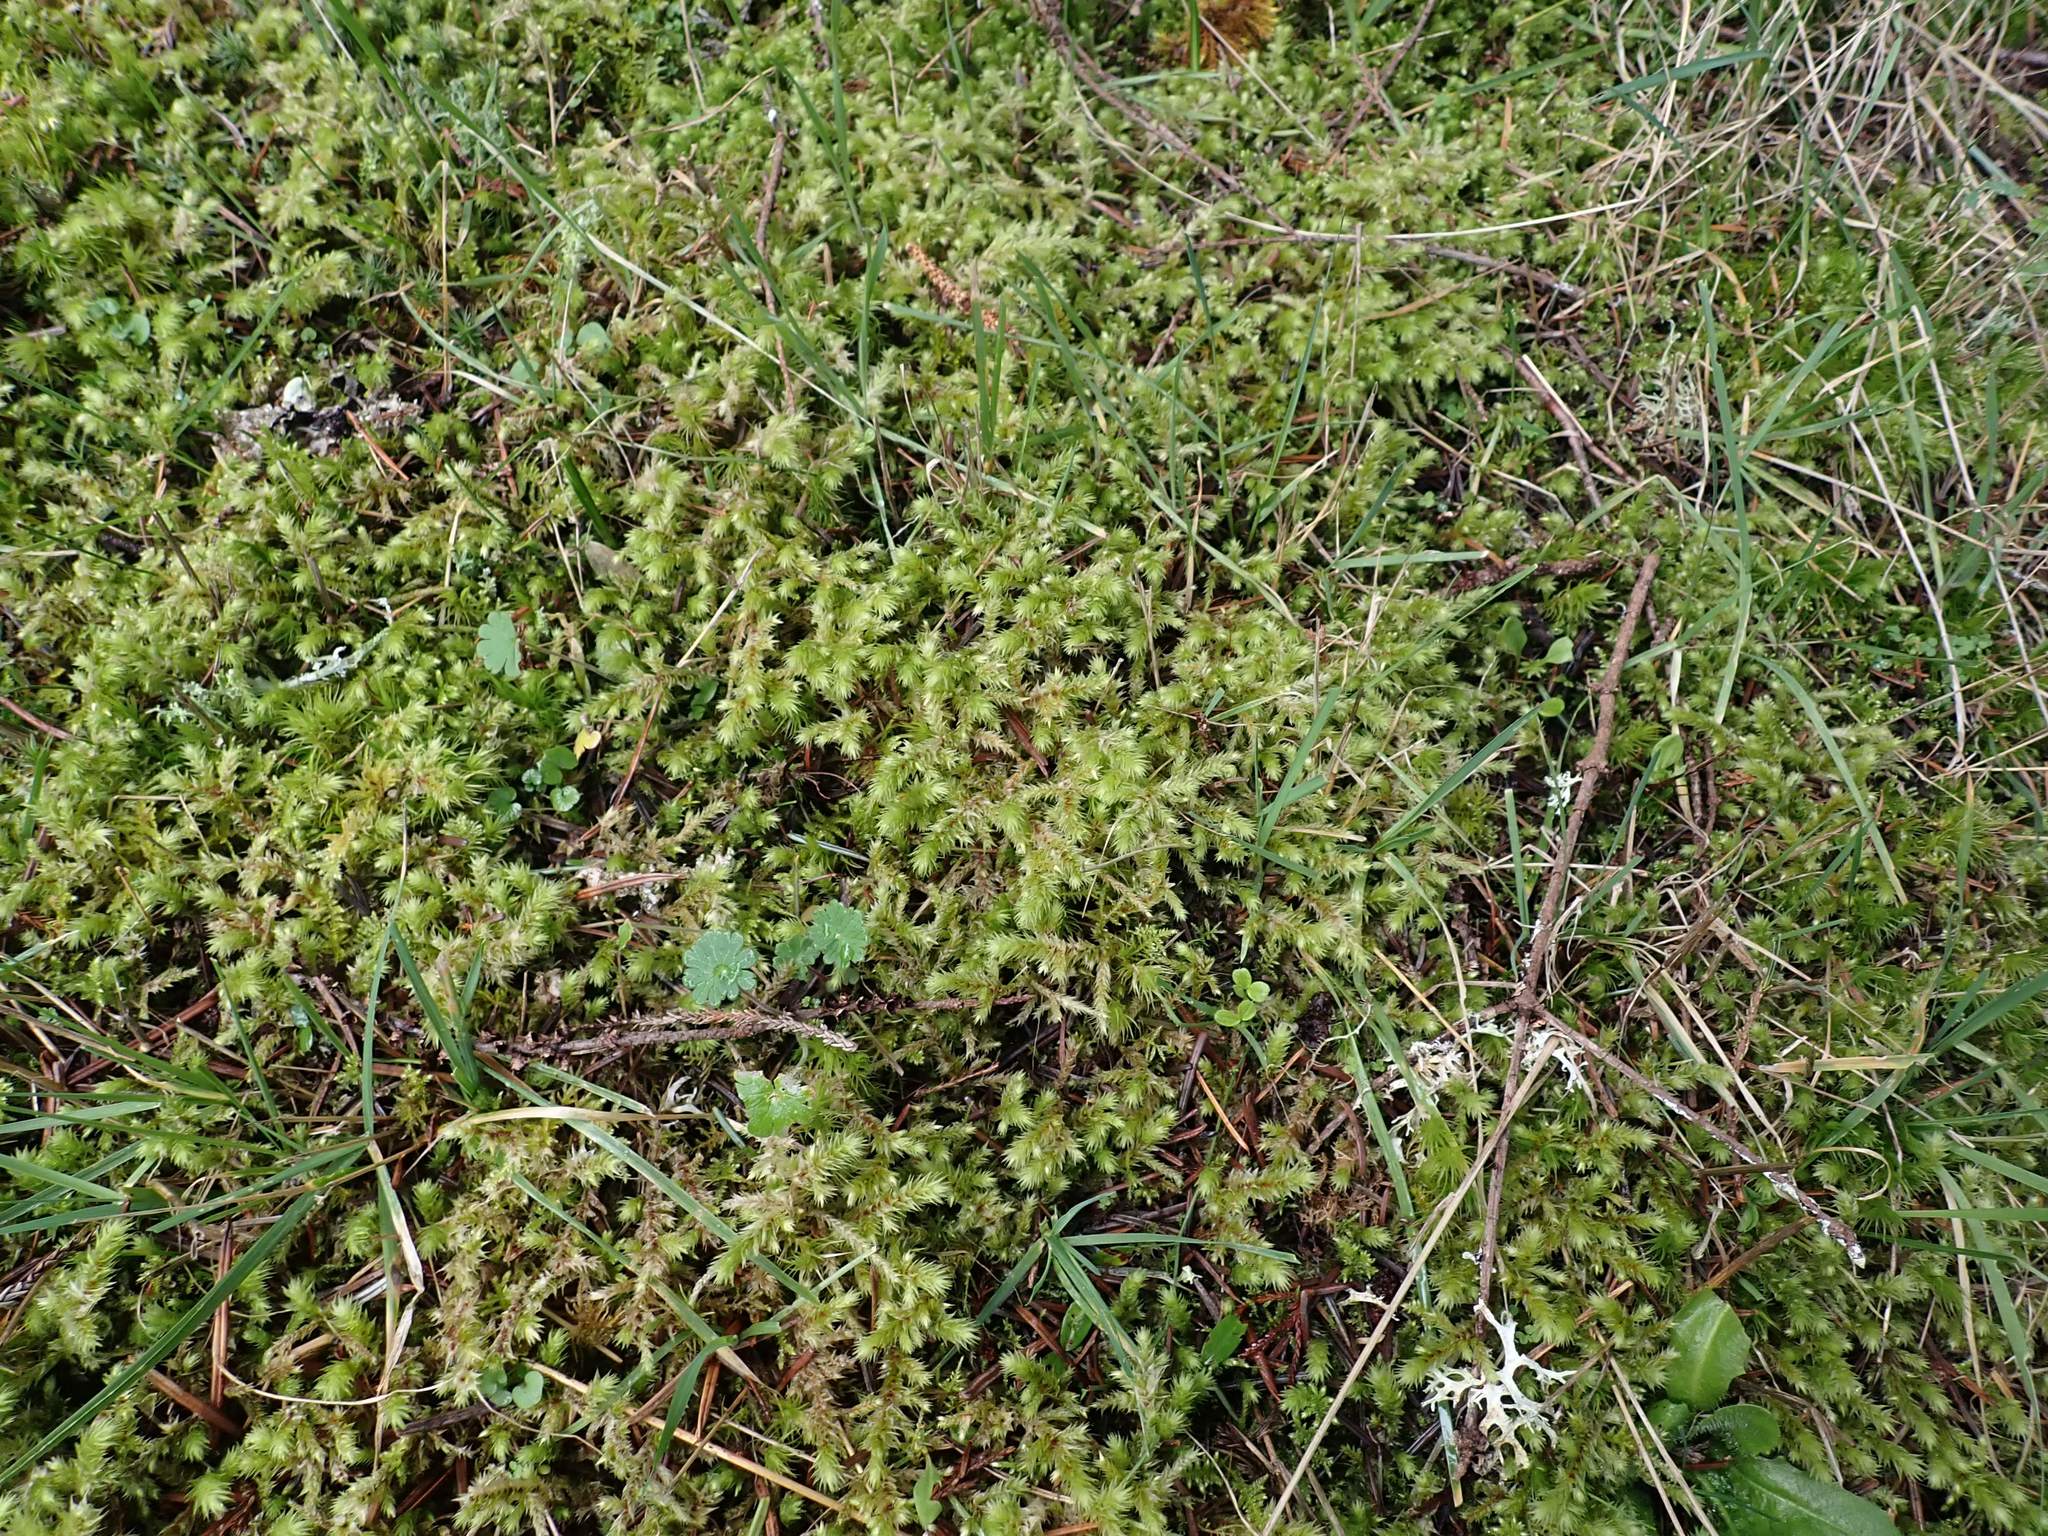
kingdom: Plantae
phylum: Bryophyta
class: Bryopsida
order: Hypnales
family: Hylocomiaceae
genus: Hylocomiadelphus
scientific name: Hylocomiadelphus triquetrus
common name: Rough goose neck moss
